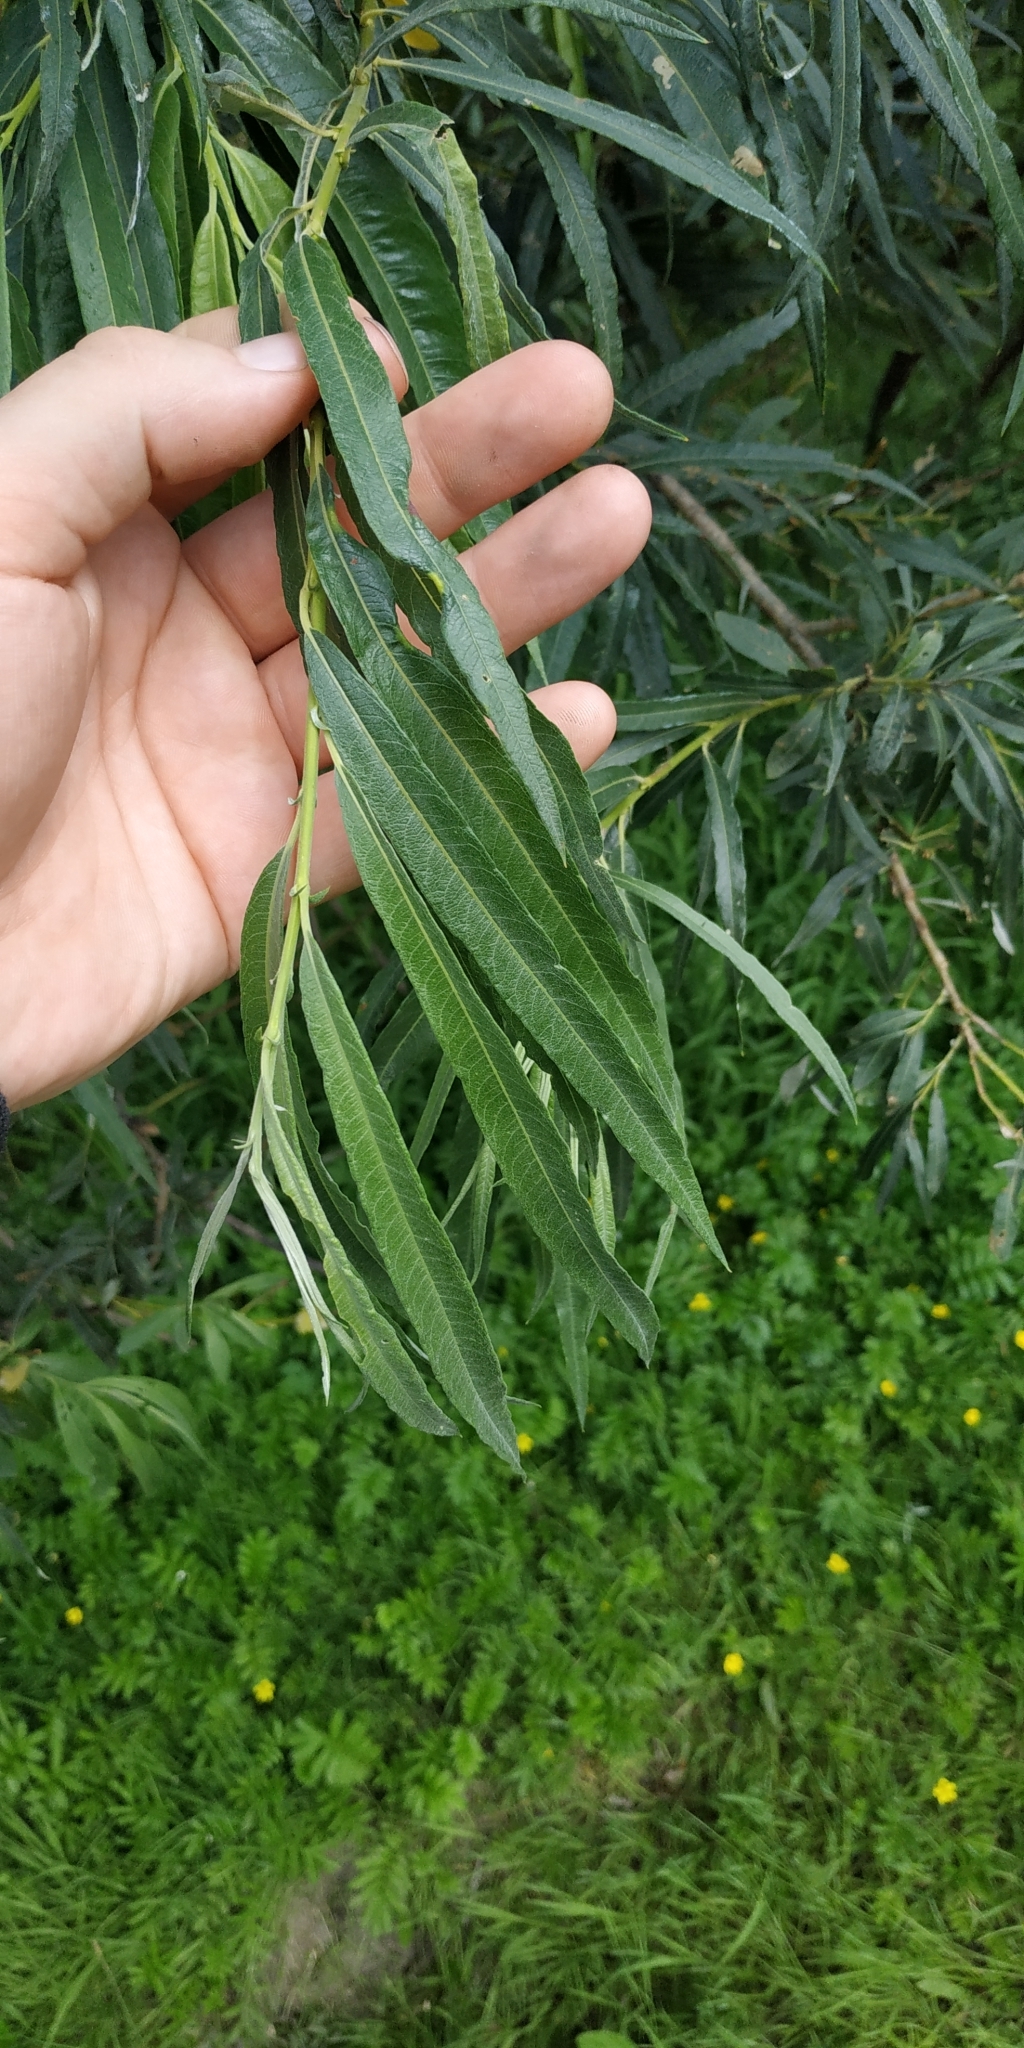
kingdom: Plantae
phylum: Tracheophyta
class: Magnoliopsida
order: Malpighiales
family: Salicaceae
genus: Salix
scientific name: Salix viminalis
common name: Osier
